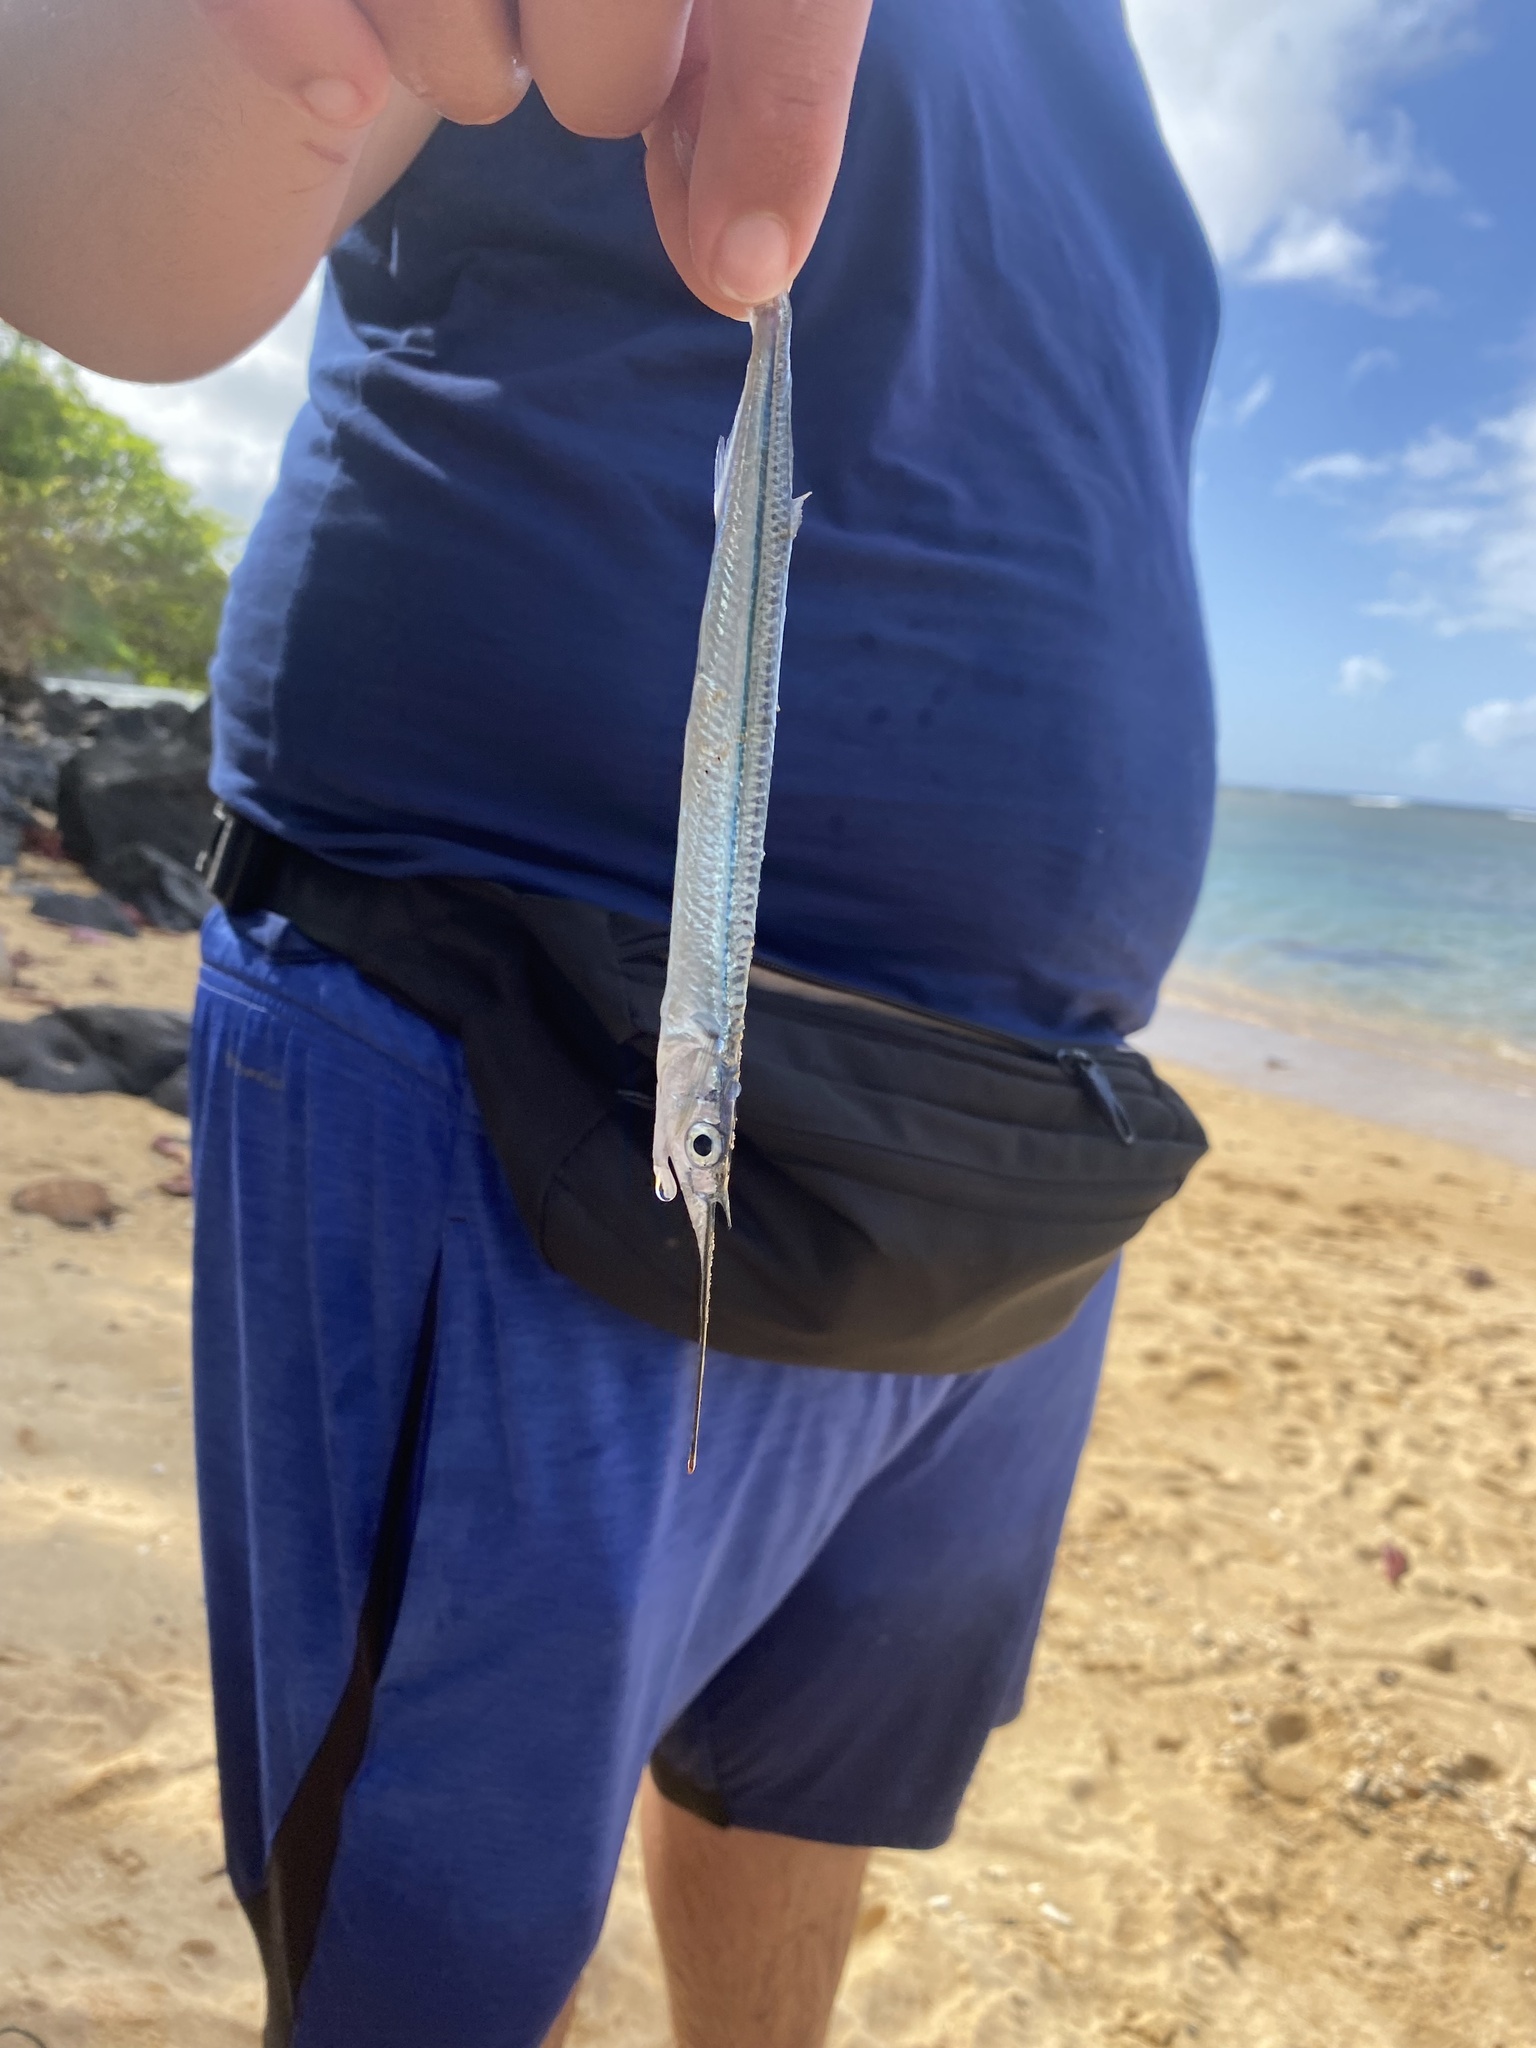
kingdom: Animalia
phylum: Chordata
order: Beloniformes
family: Hemiramphidae
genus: Hyporhamphus
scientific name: Hyporhamphus acutus
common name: Acute halfbeak
